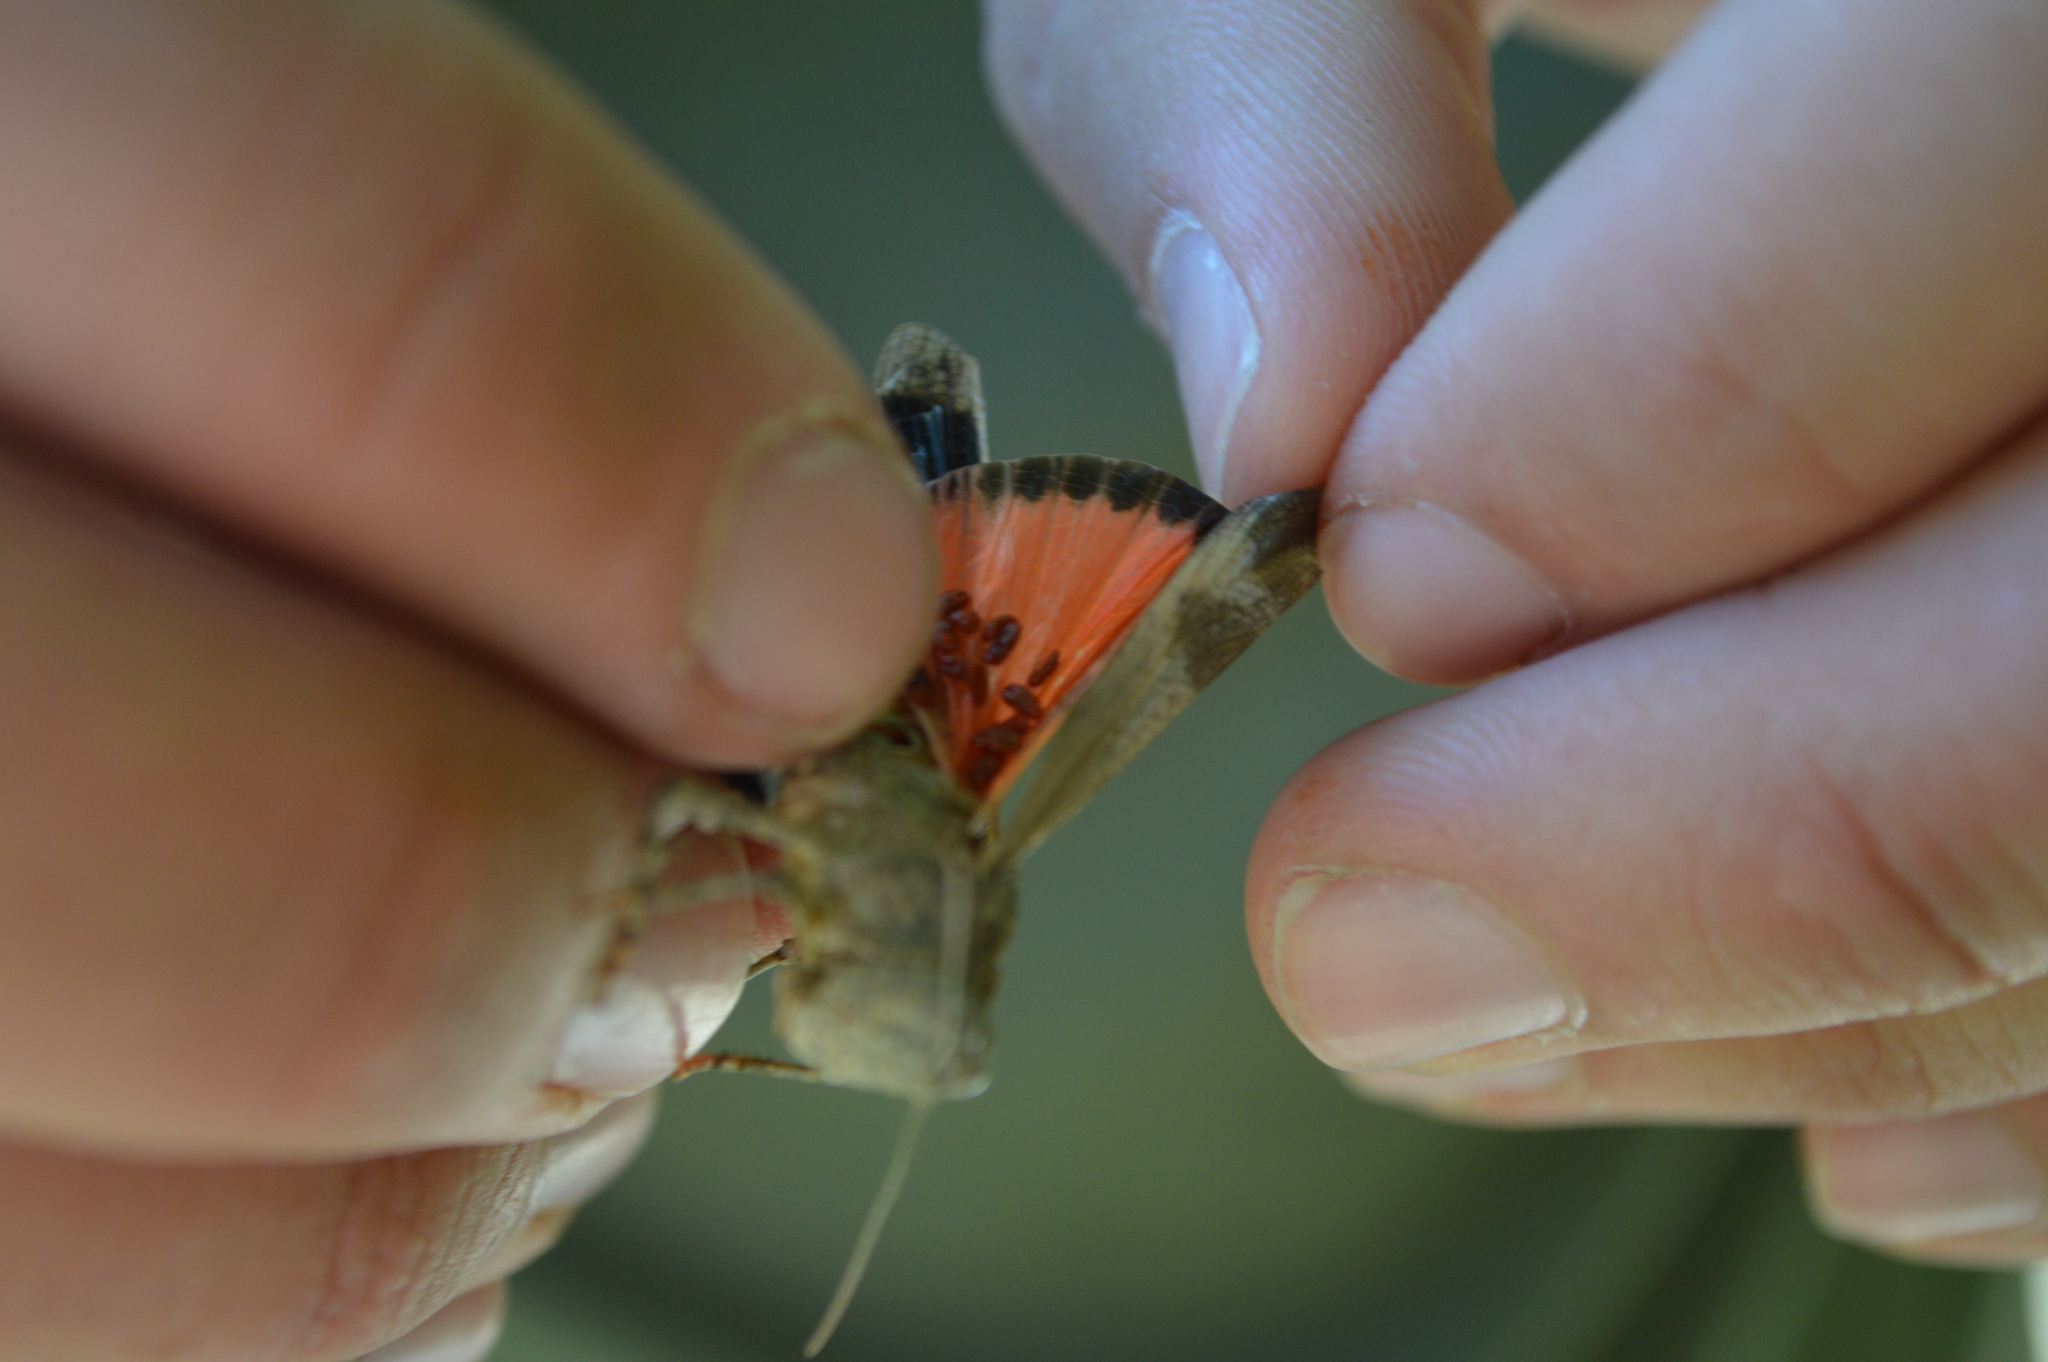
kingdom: Animalia
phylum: Arthropoda
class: Insecta
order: Orthoptera
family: Acrididae
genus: Oedipoda
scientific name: Oedipoda germanica
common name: Red band-winged grasshopper
